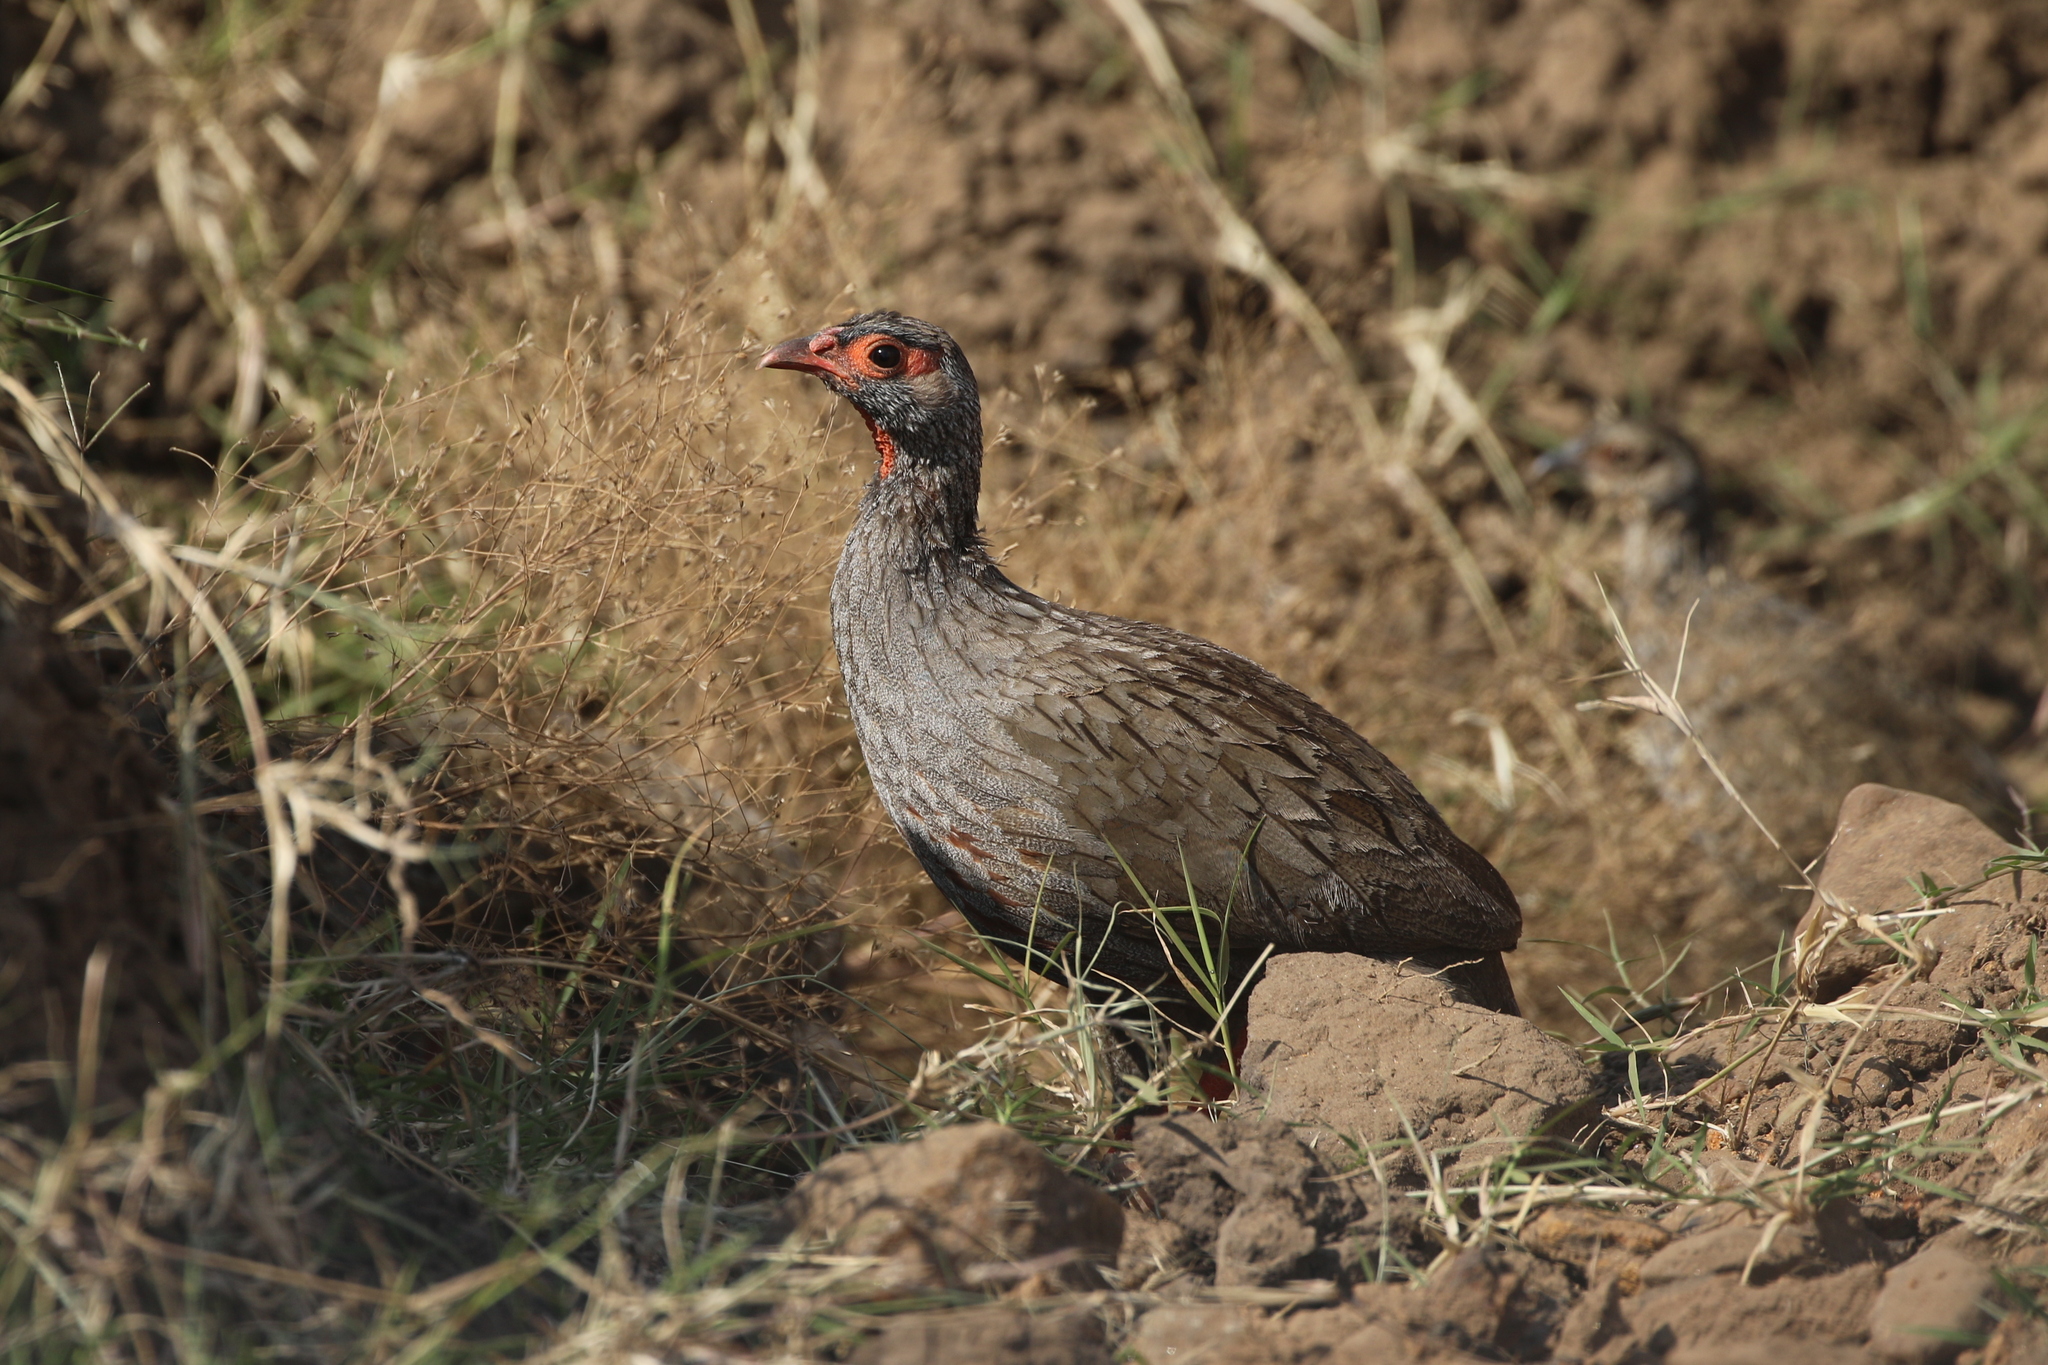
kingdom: Animalia
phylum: Chordata
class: Aves
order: Galliformes
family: Phasianidae
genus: Pternistis
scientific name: Pternistis afer
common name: Red-necked spurfowl
